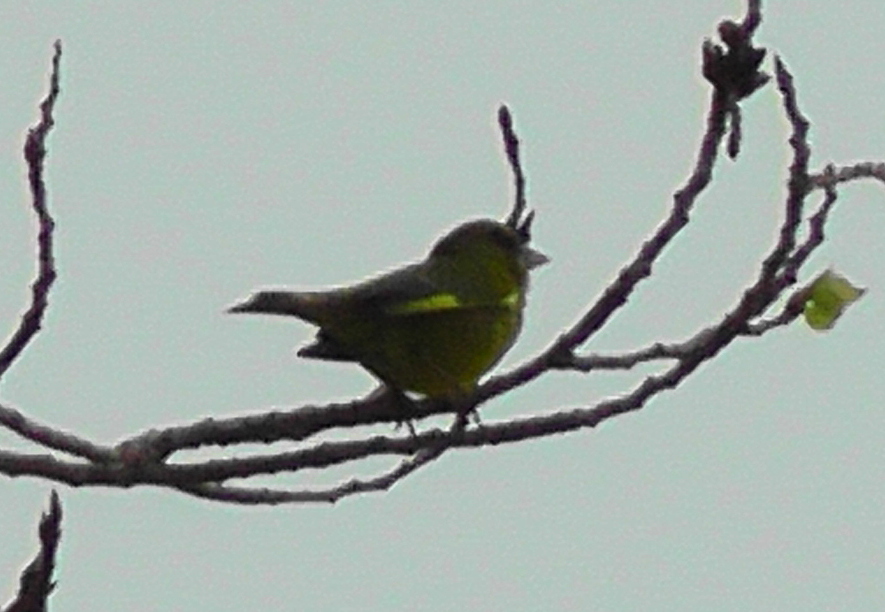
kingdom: Plantae
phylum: Tracheophyta
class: Liliopsida
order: Poales
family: Poaceae
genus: Chloris
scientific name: Chloris chloris
